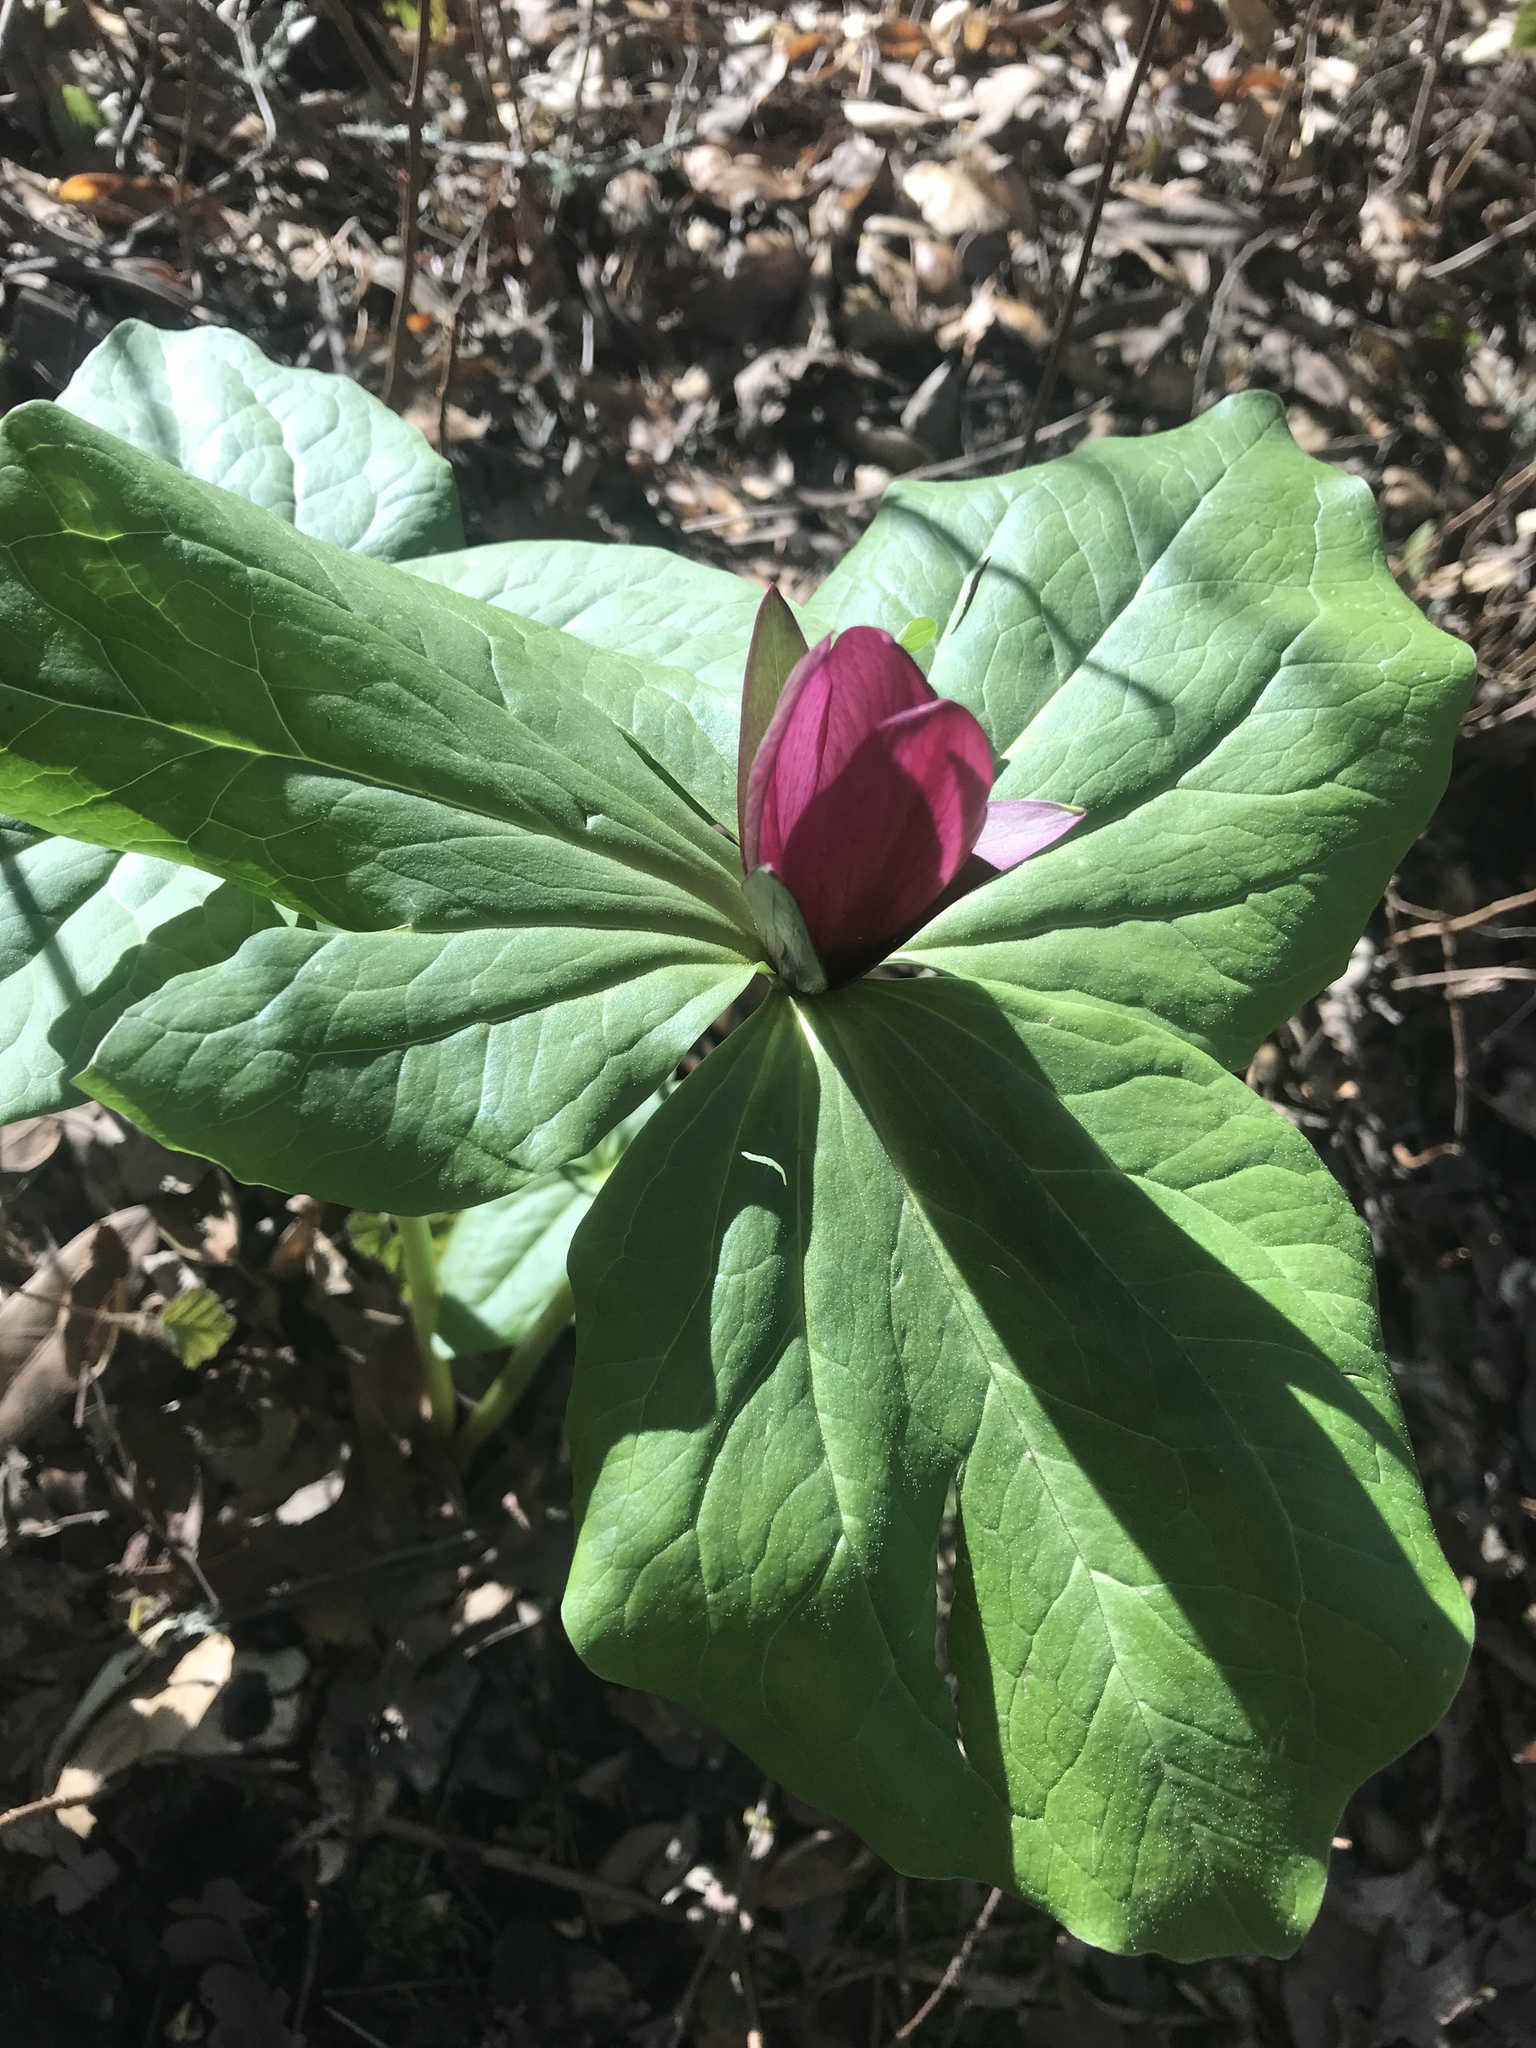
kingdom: Plantae
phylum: Tracheophyta
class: Liliopsida
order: Liliales
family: Melanthiaceae
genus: Trillium
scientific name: Trillium chloropetalum
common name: Giant trillium
